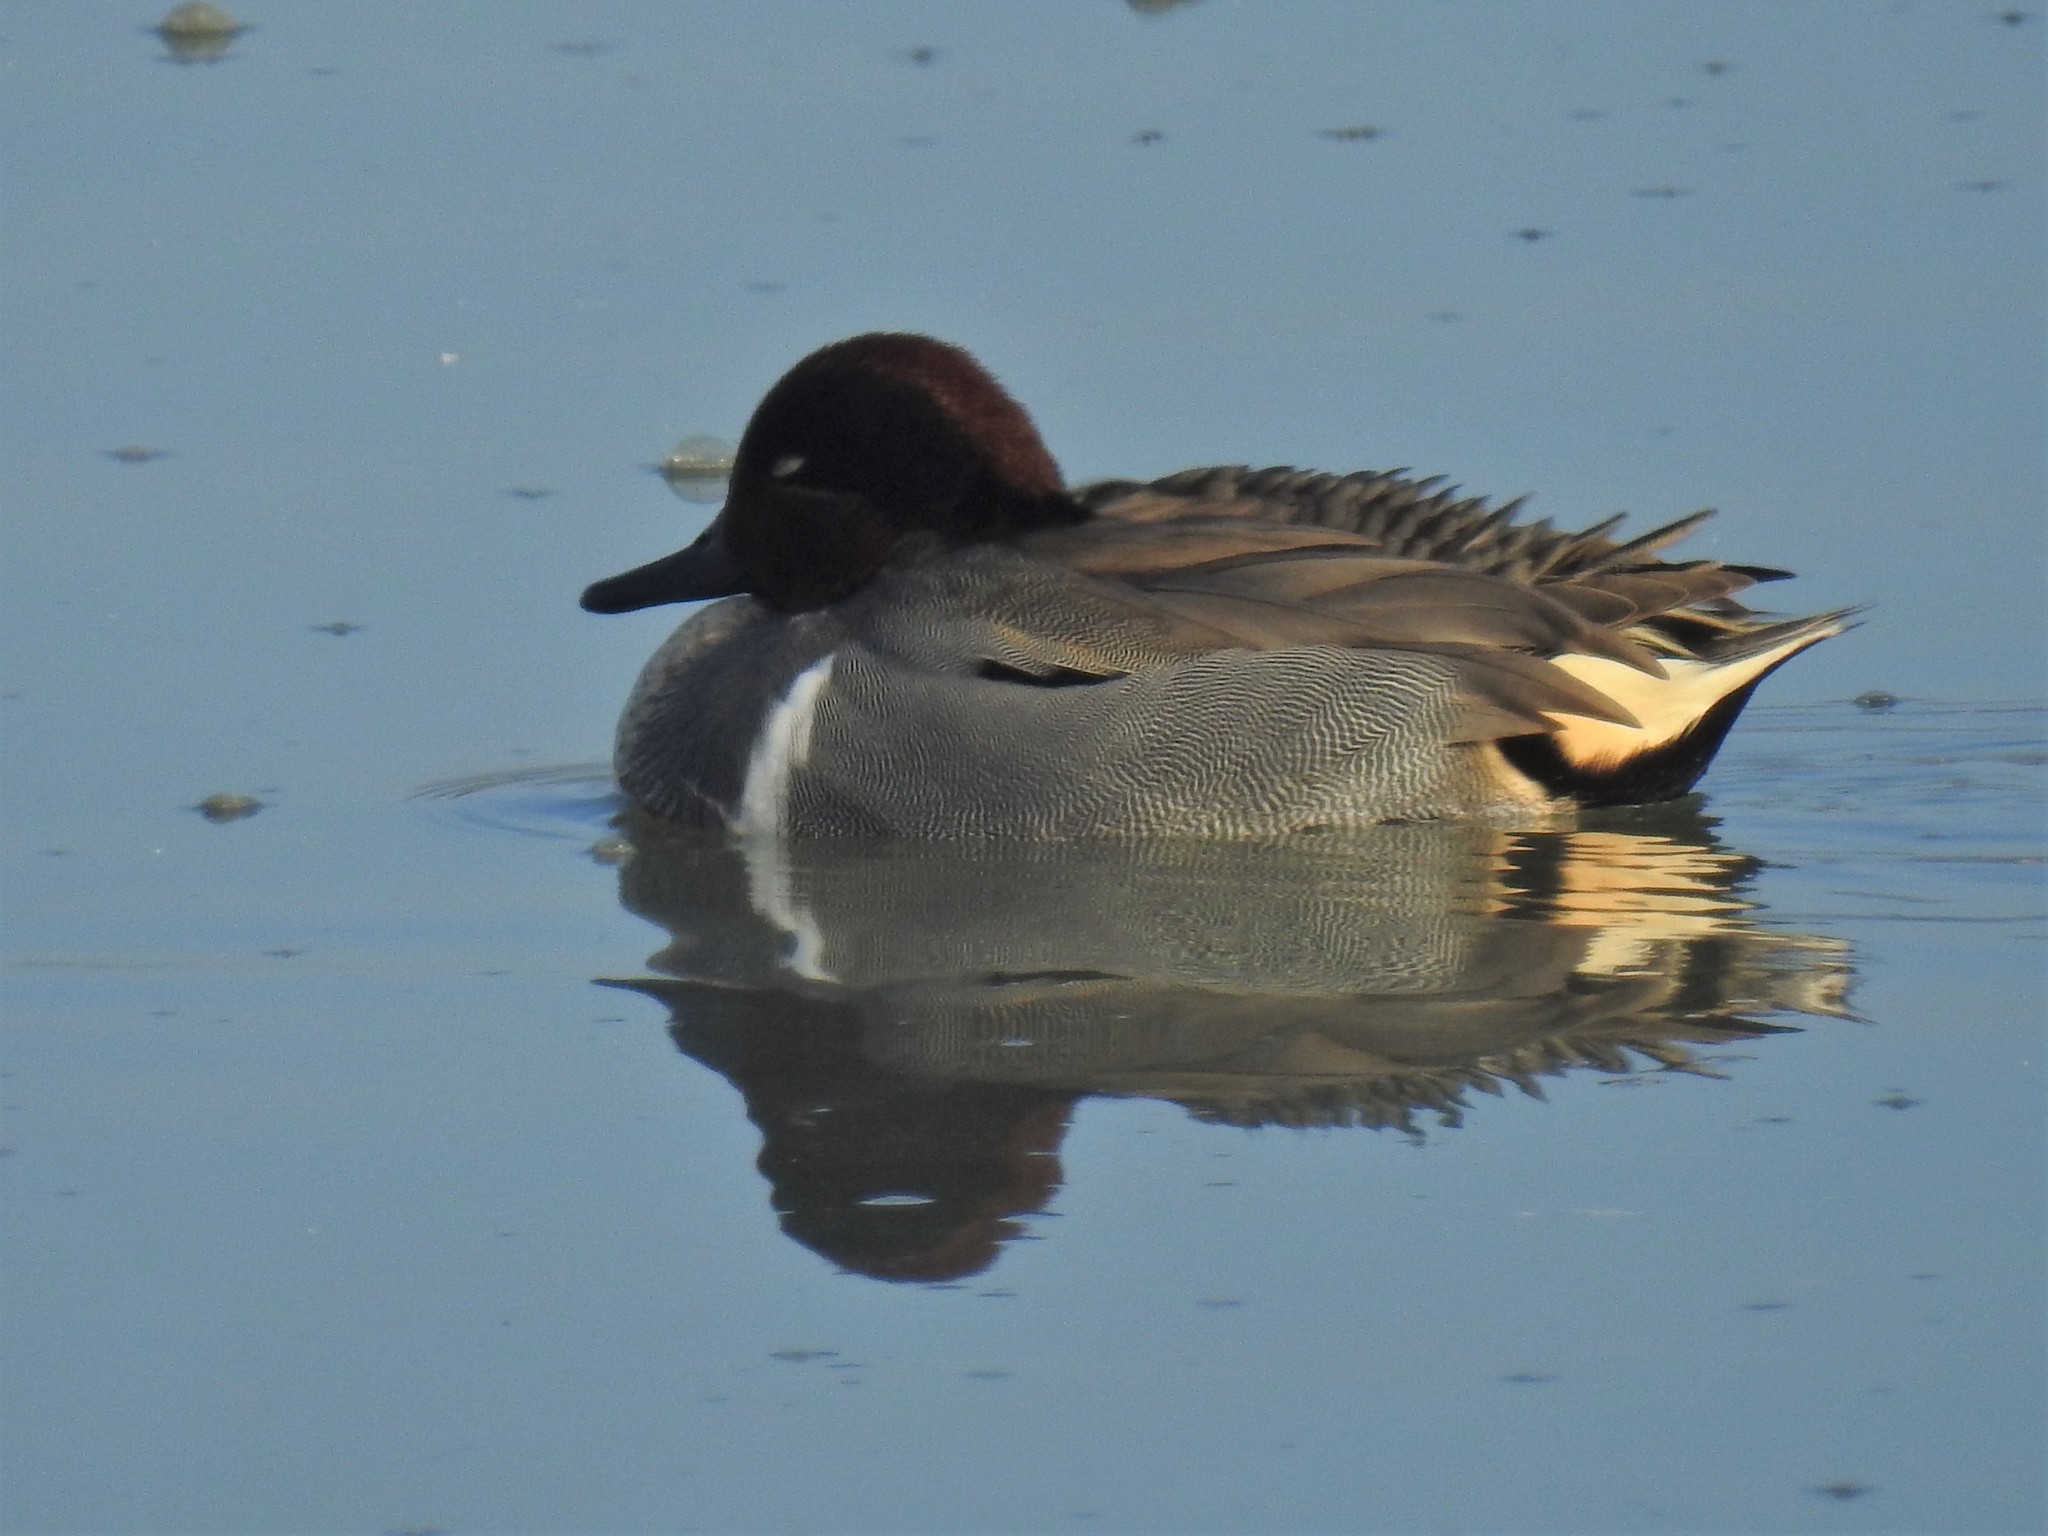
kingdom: Animalia
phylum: Chordata
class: Aves
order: Anseriformes
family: Anatidae
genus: Anas
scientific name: Anas crecca
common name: Eurasian teal
